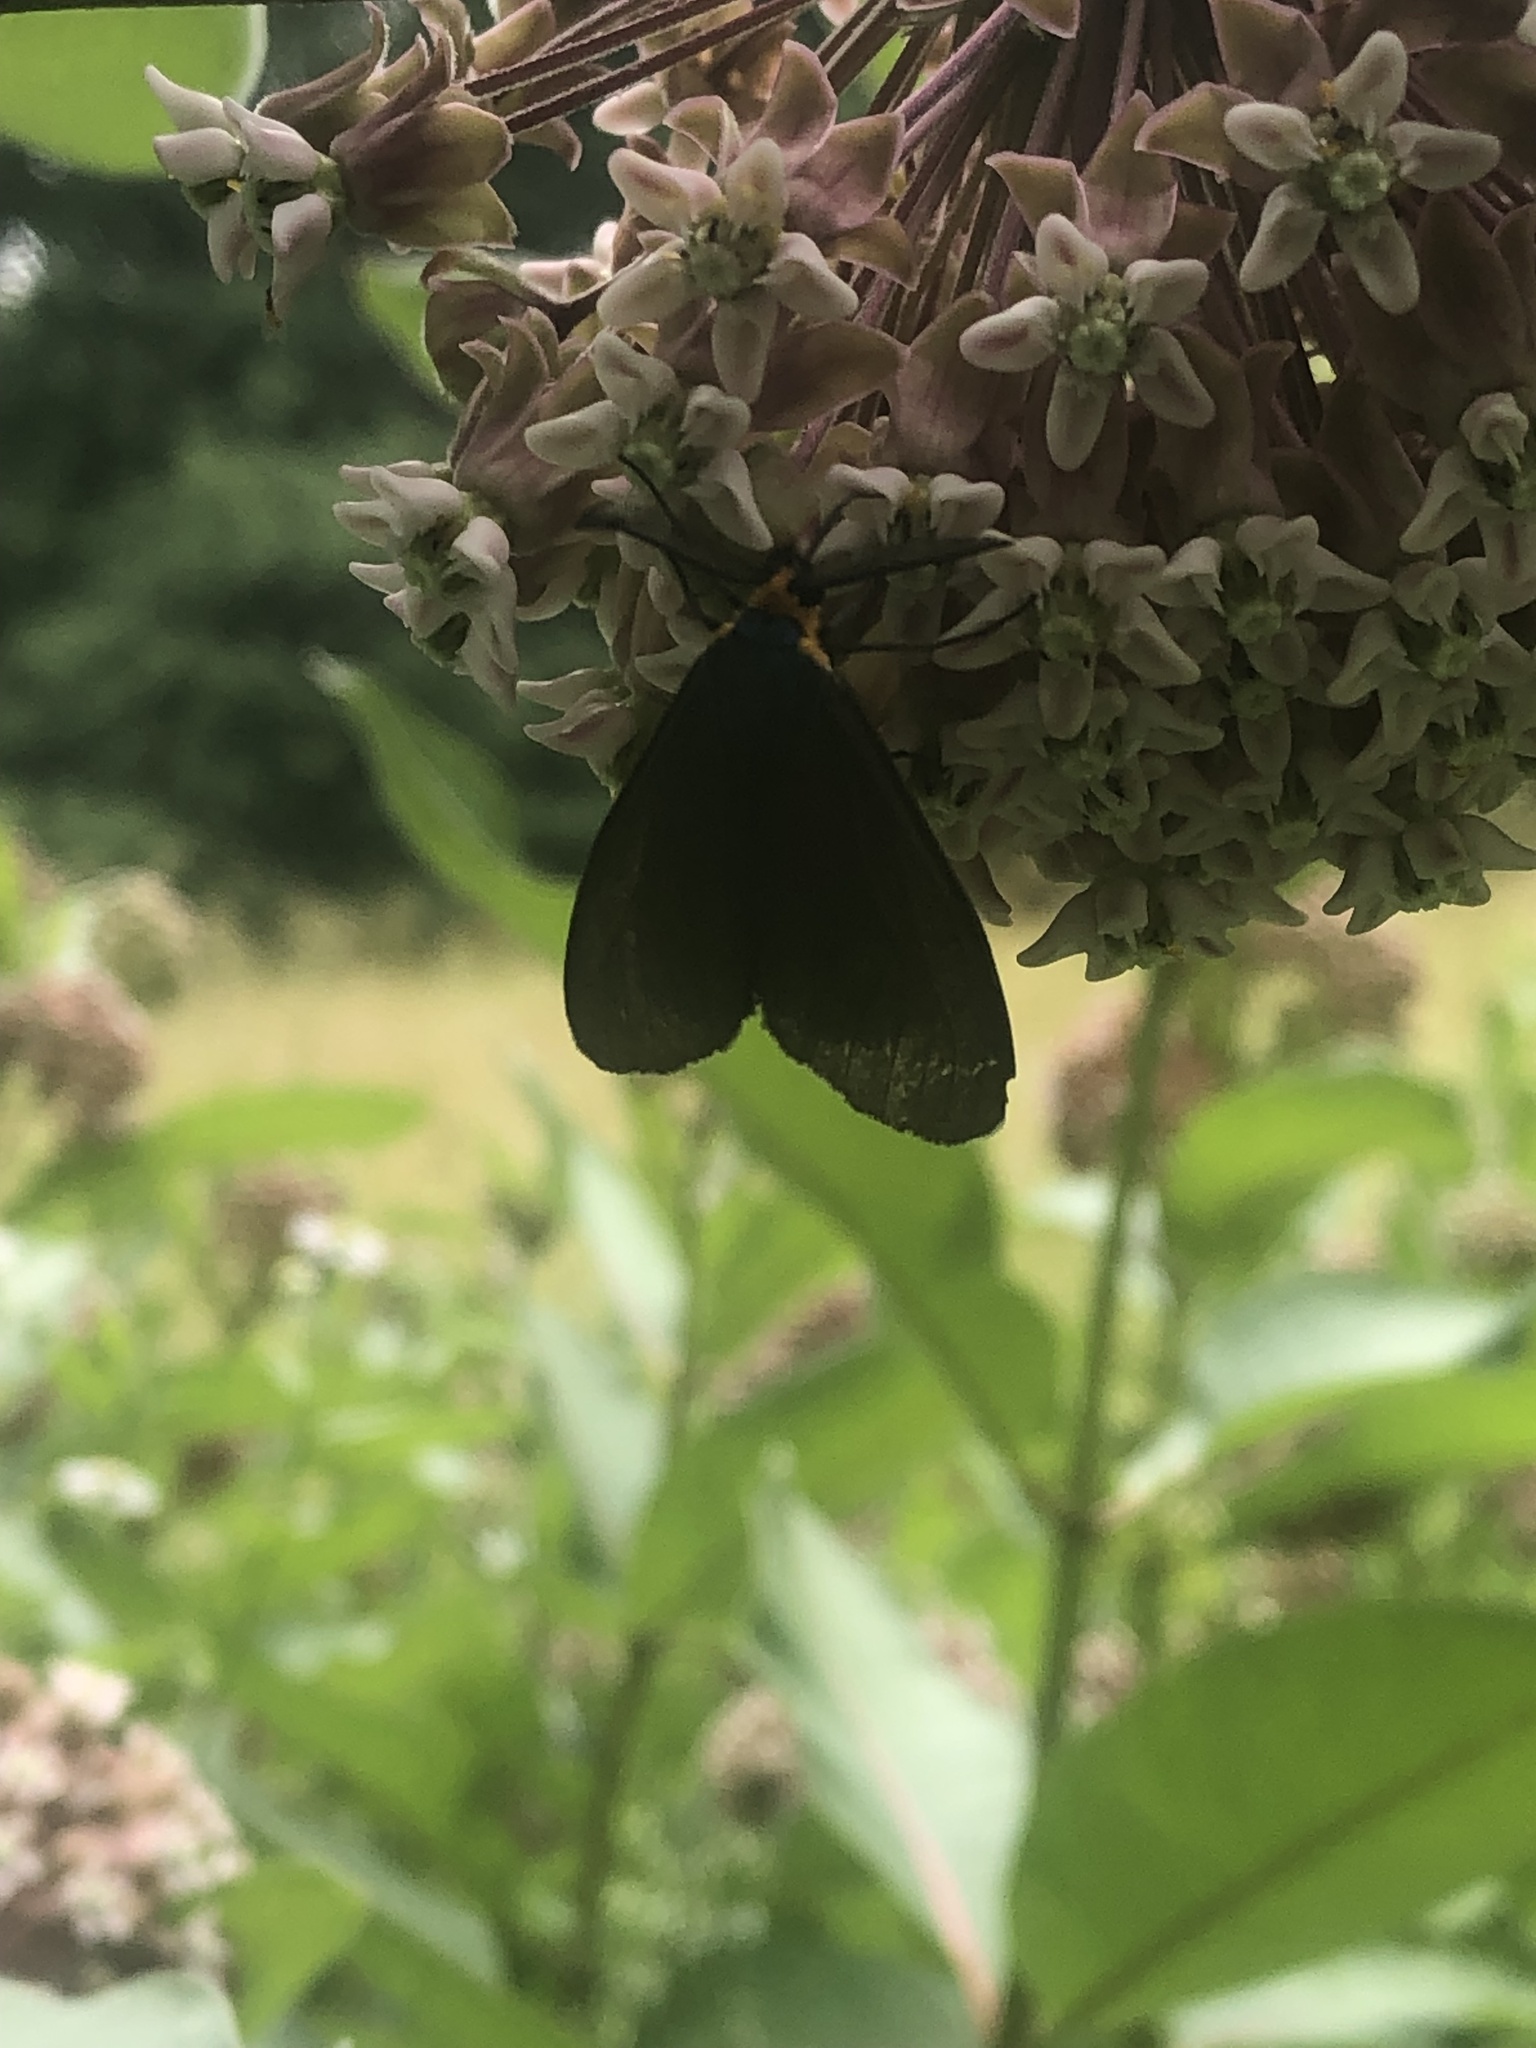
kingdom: Animalia
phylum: Arthropoda
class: Insecta
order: Lepidoptera
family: Erebidae
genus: Ctenucha
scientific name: Ctenucha virginica
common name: Virginia ctenucha moth
